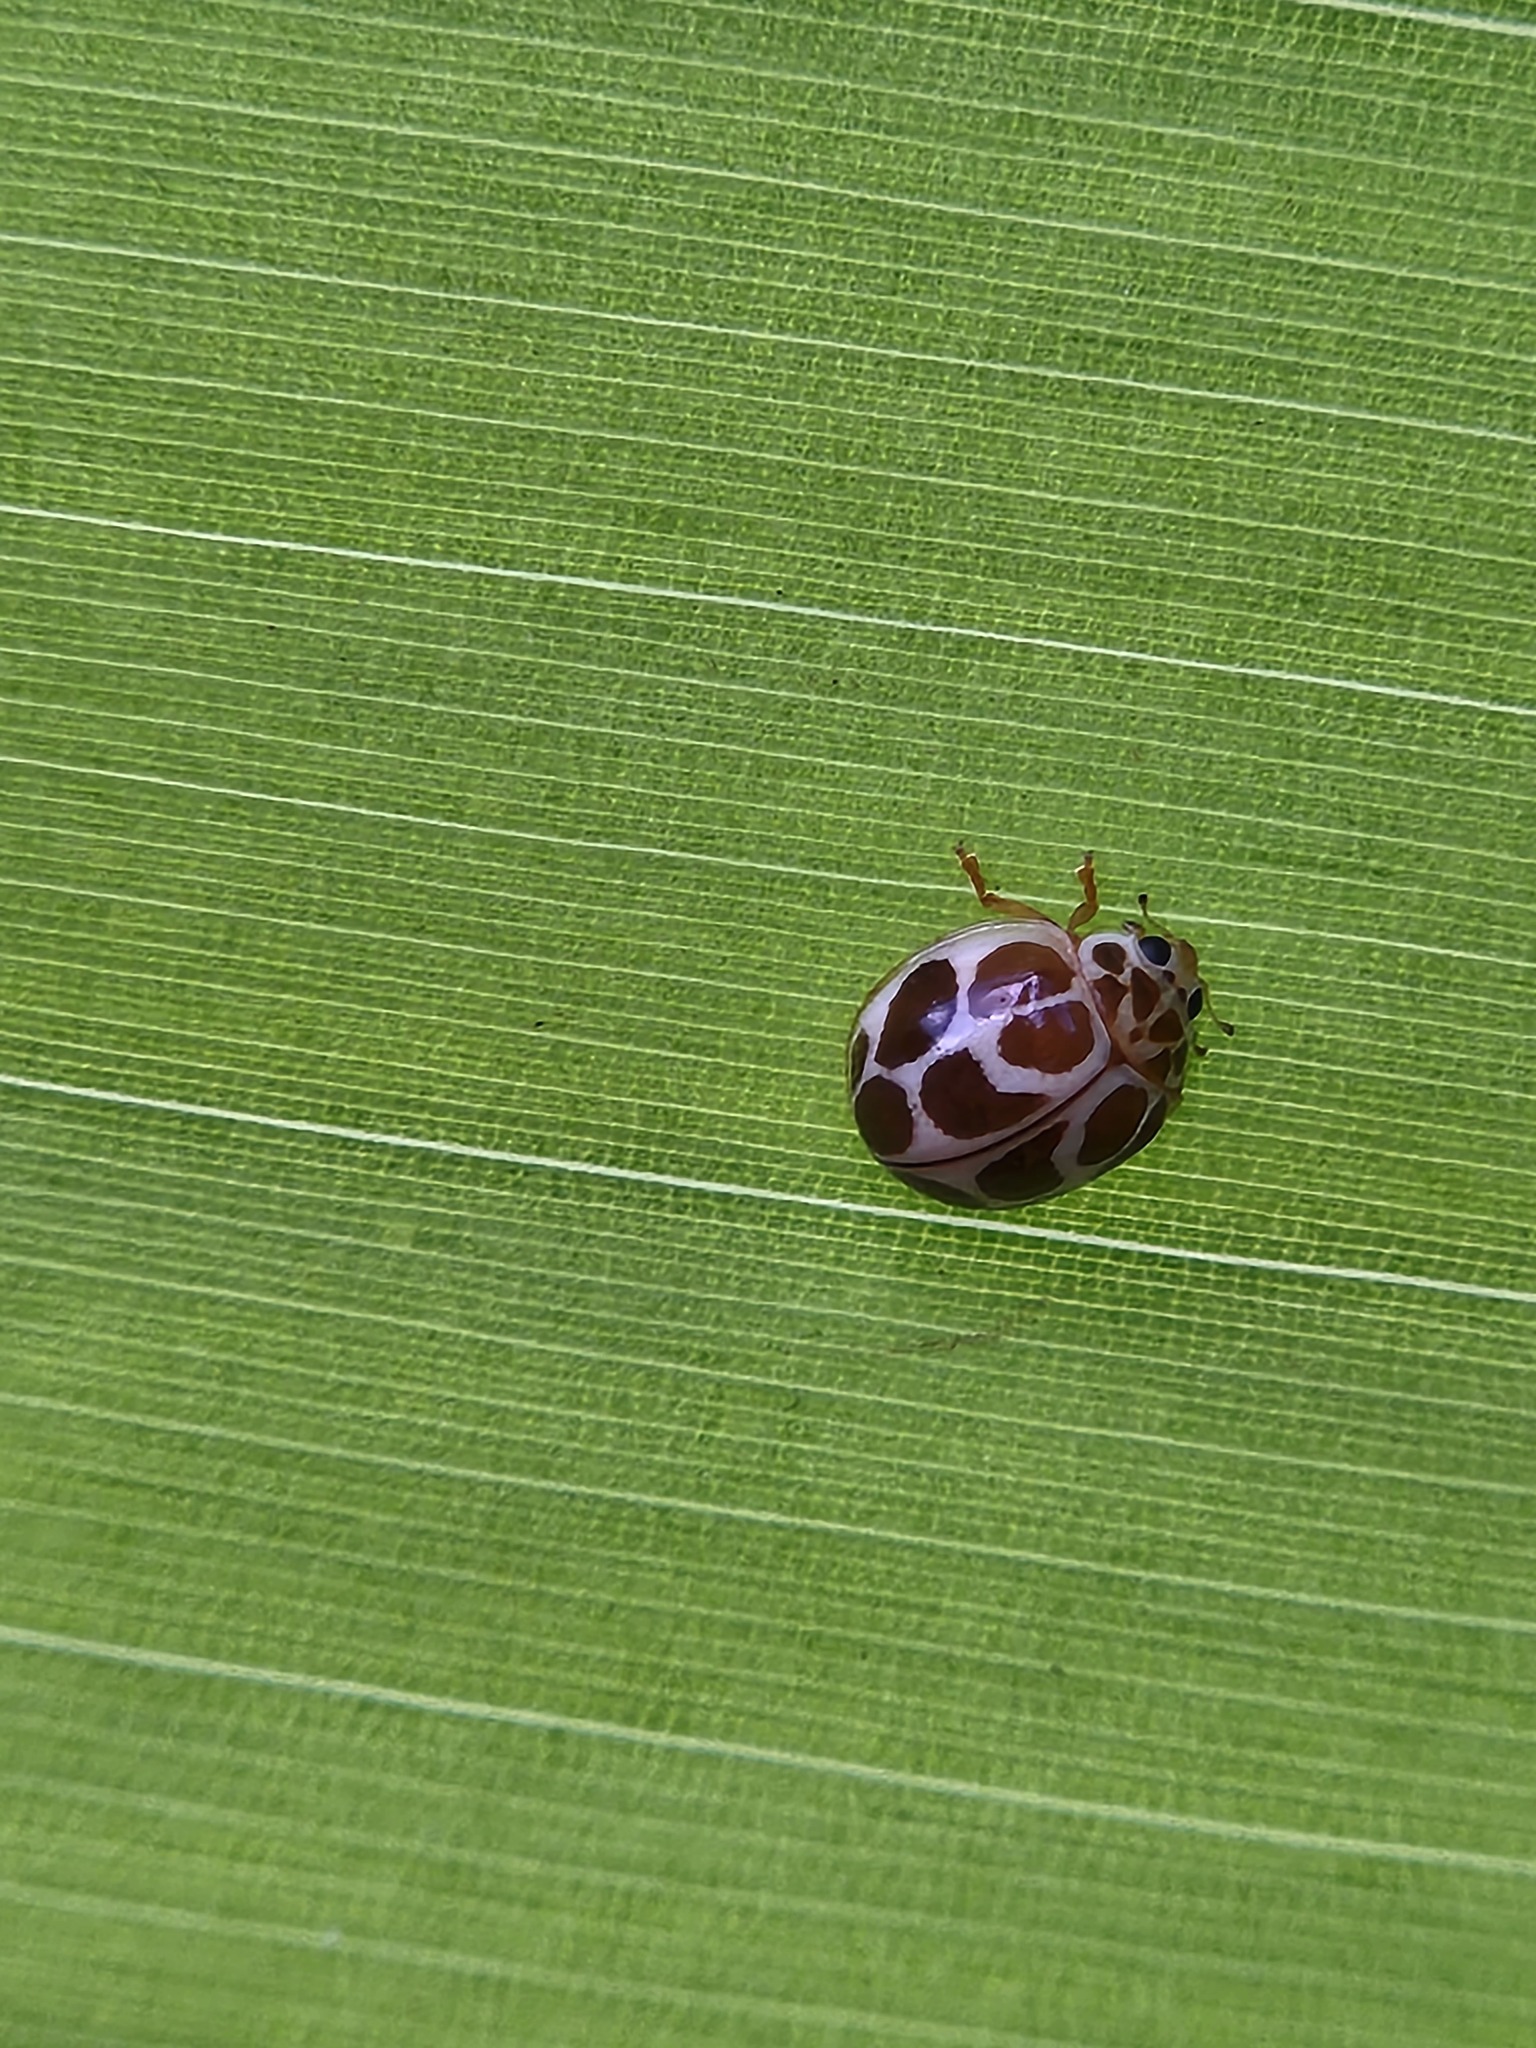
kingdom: Animalia
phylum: Arthropoda
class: Insecta
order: Coleoptera
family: Coccinellidae
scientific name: Coccinellidae
